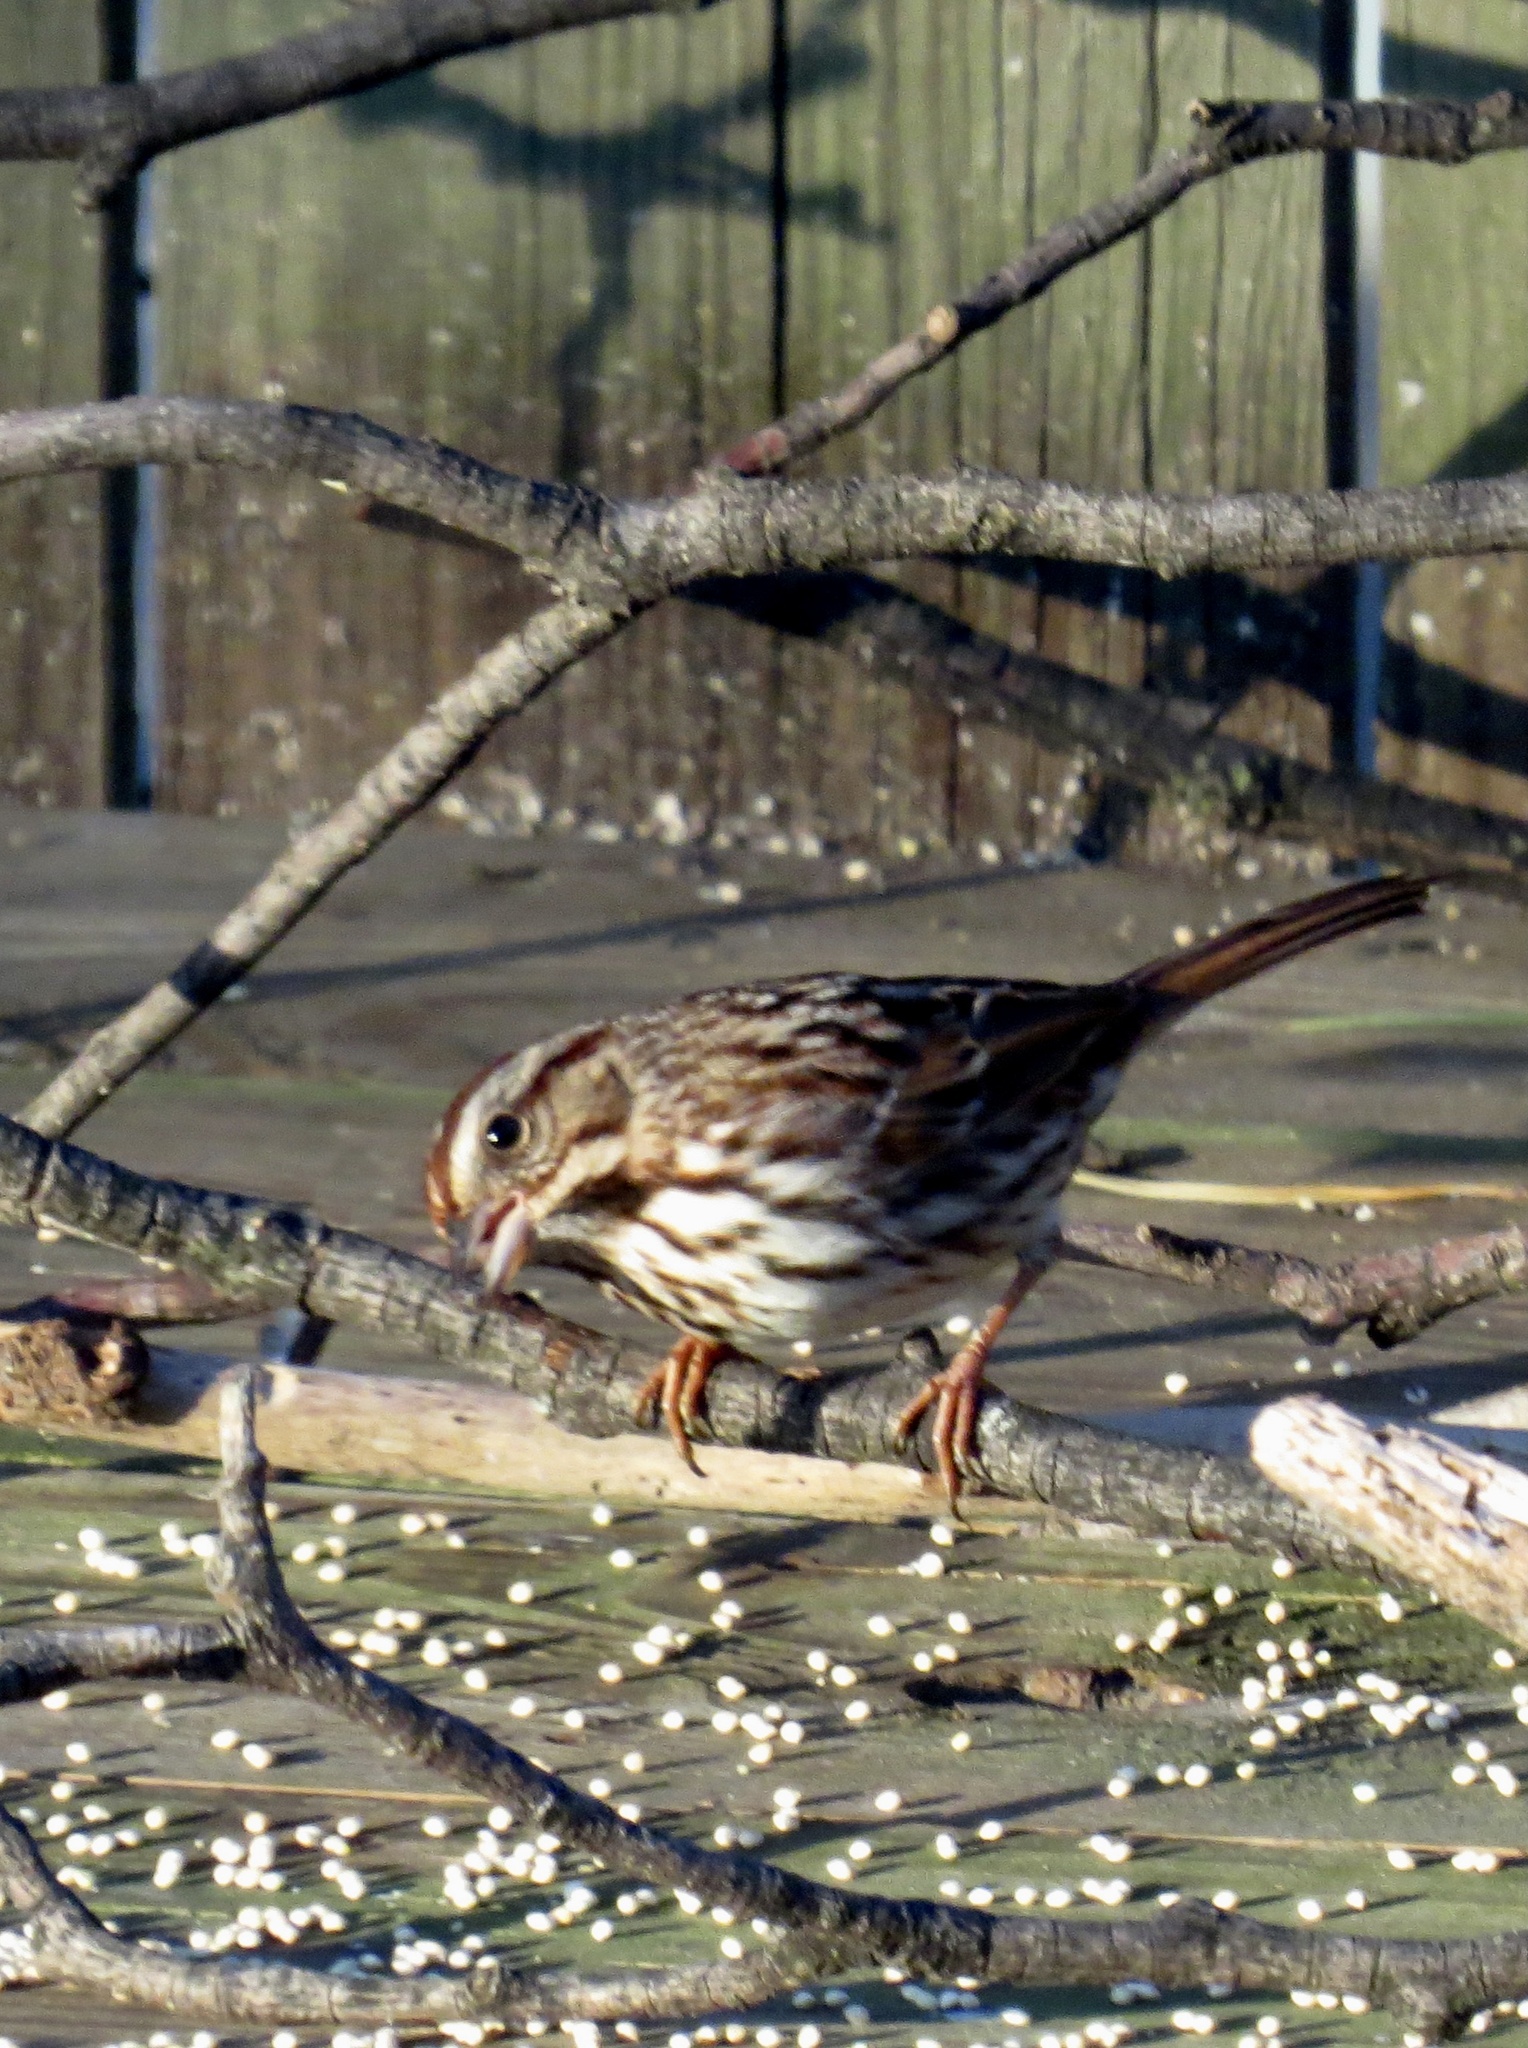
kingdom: Animalia
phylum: Chordata
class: Aves
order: Passeriformes
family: Passerellidae
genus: Melospiza
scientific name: Melospiza melodia
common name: Song sparrow
